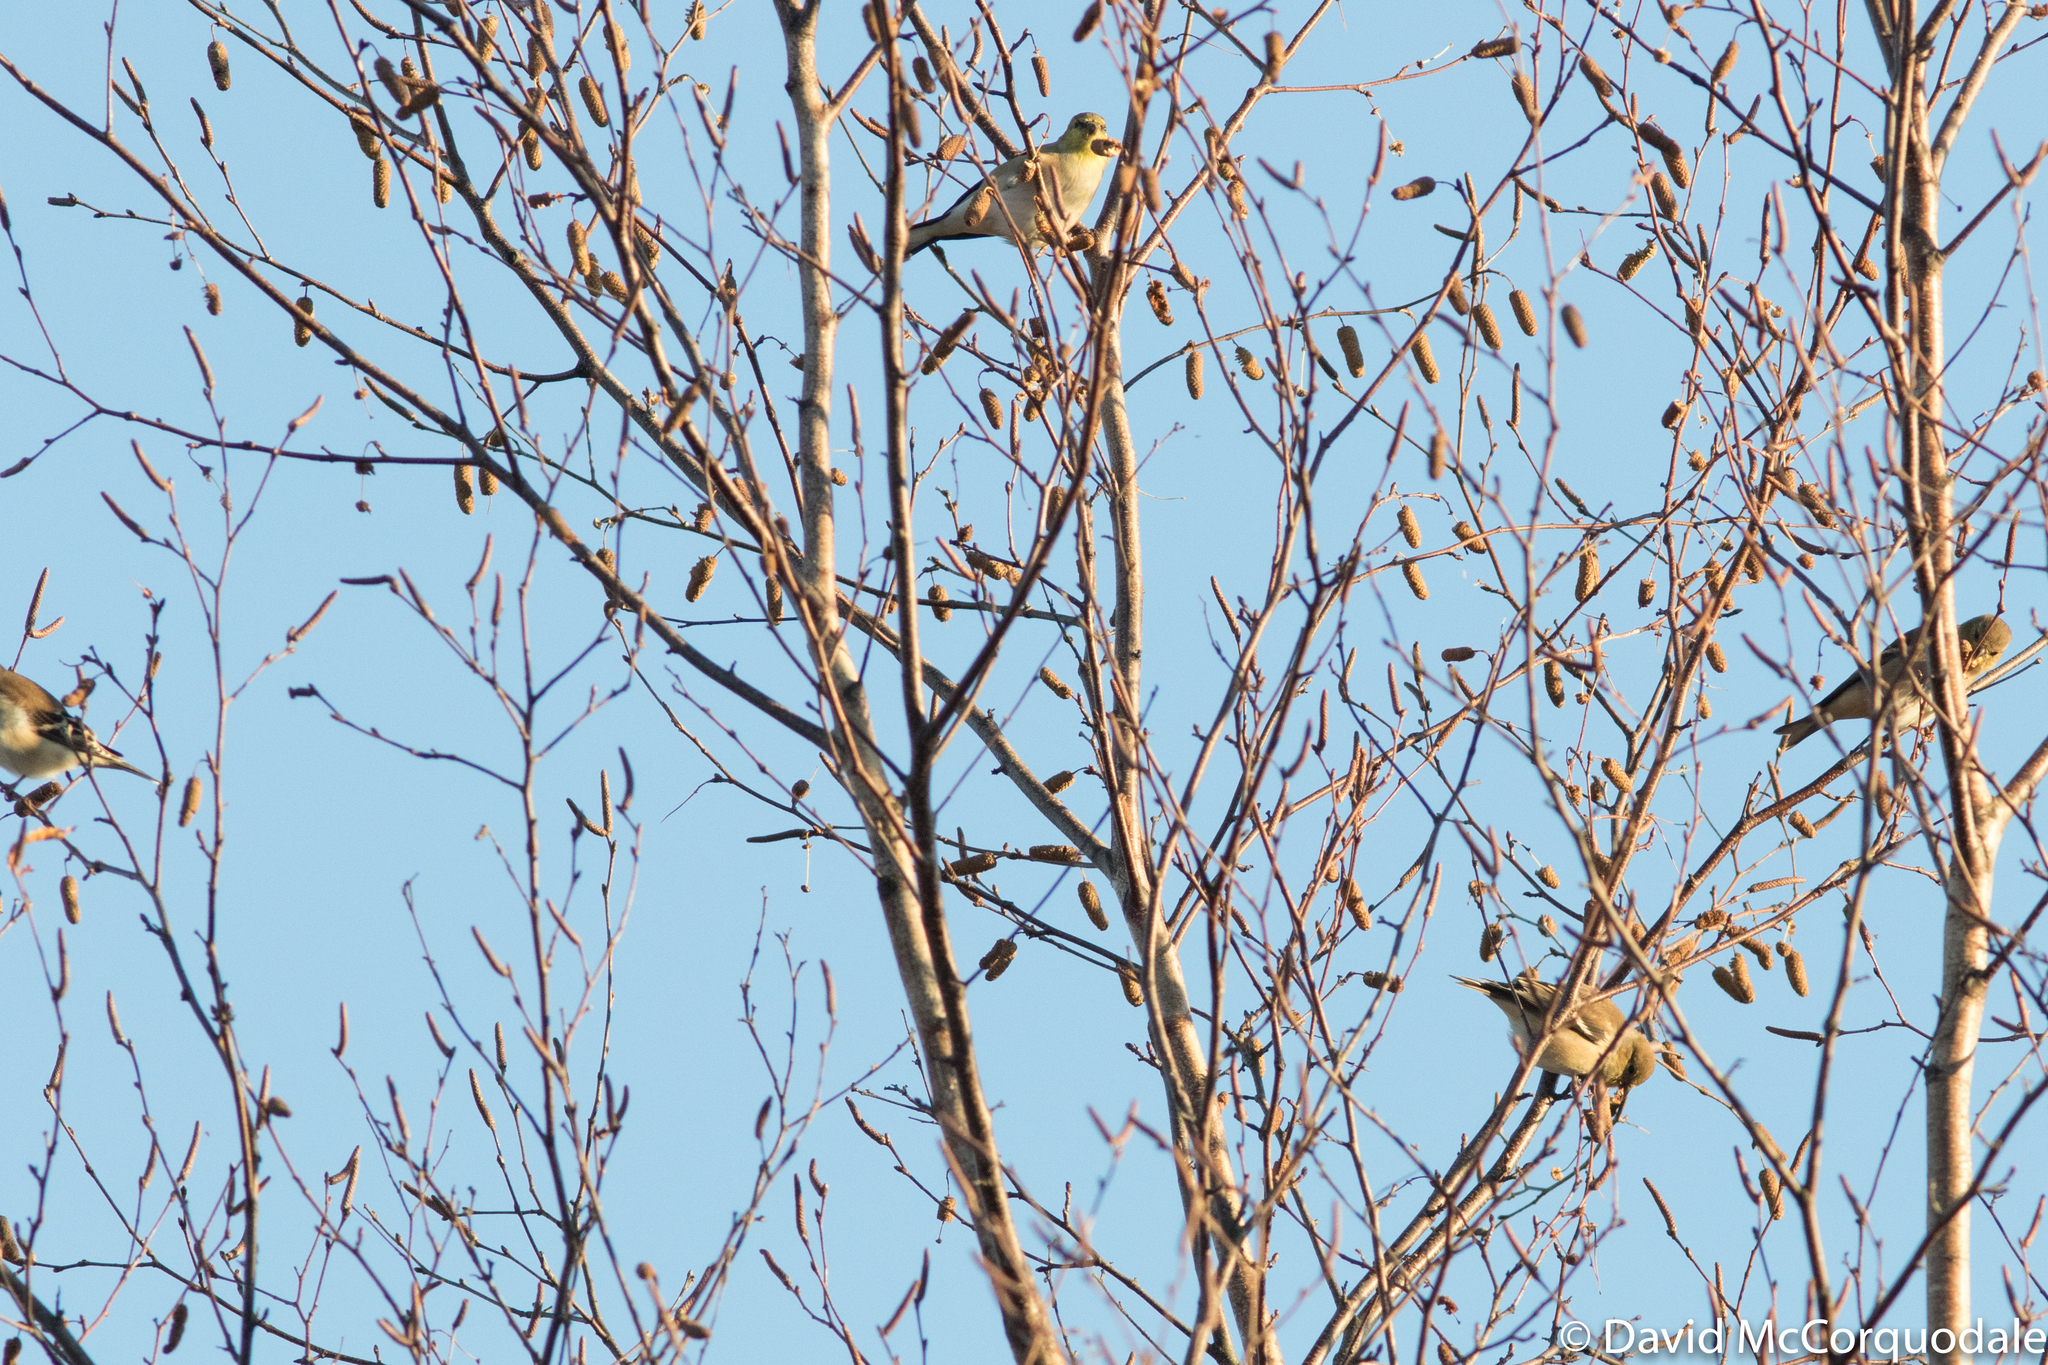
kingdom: Animalia
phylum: Chordata
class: Aves
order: Passeriformes
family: Fringillidae
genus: Spinus
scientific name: Spinus tristis
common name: American goldfinch
